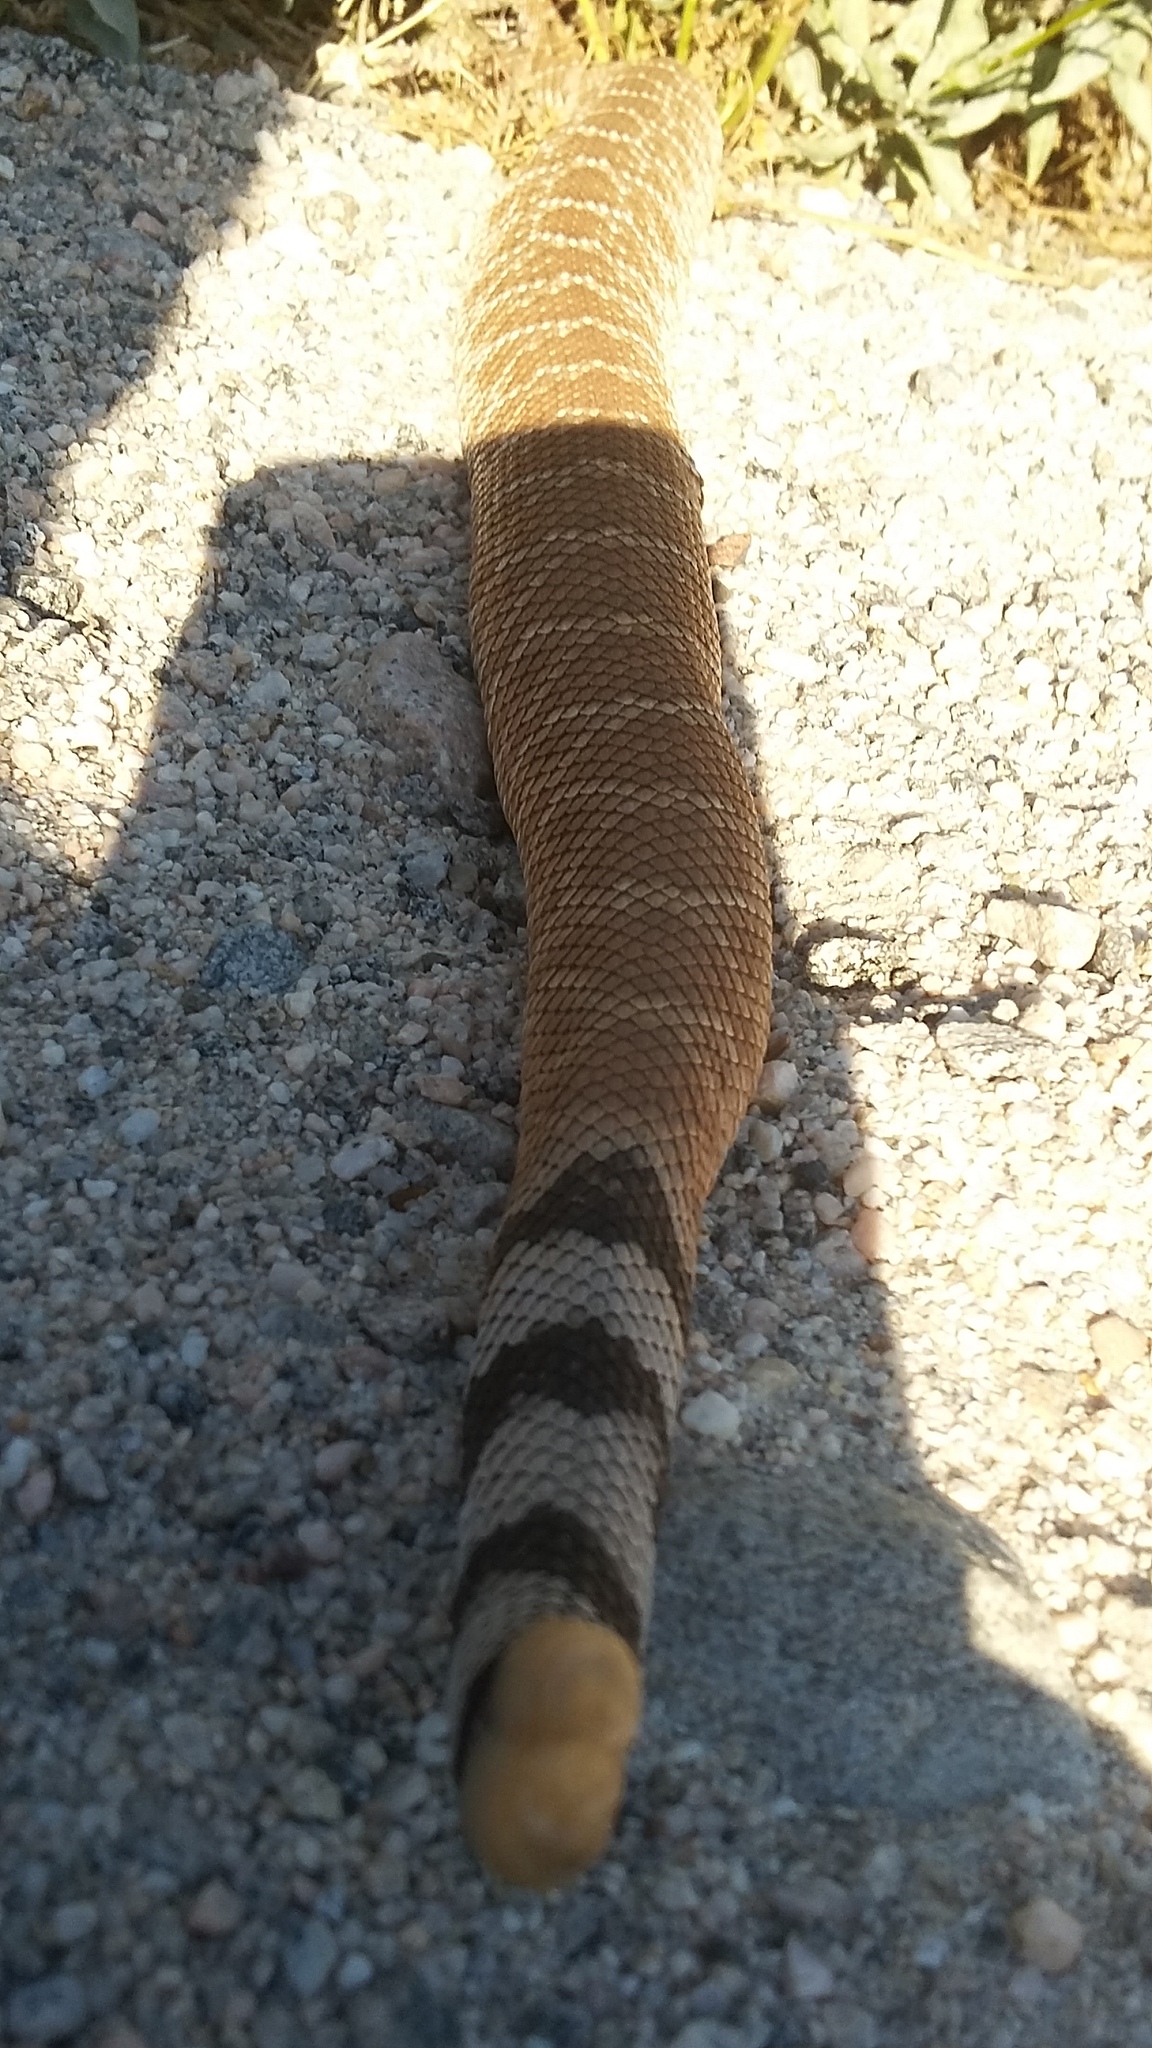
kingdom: Animalia
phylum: Chordata
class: Squamata
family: Viperidae
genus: Crotalus
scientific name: Crotalus ruber
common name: Red diamond rattlesnake
